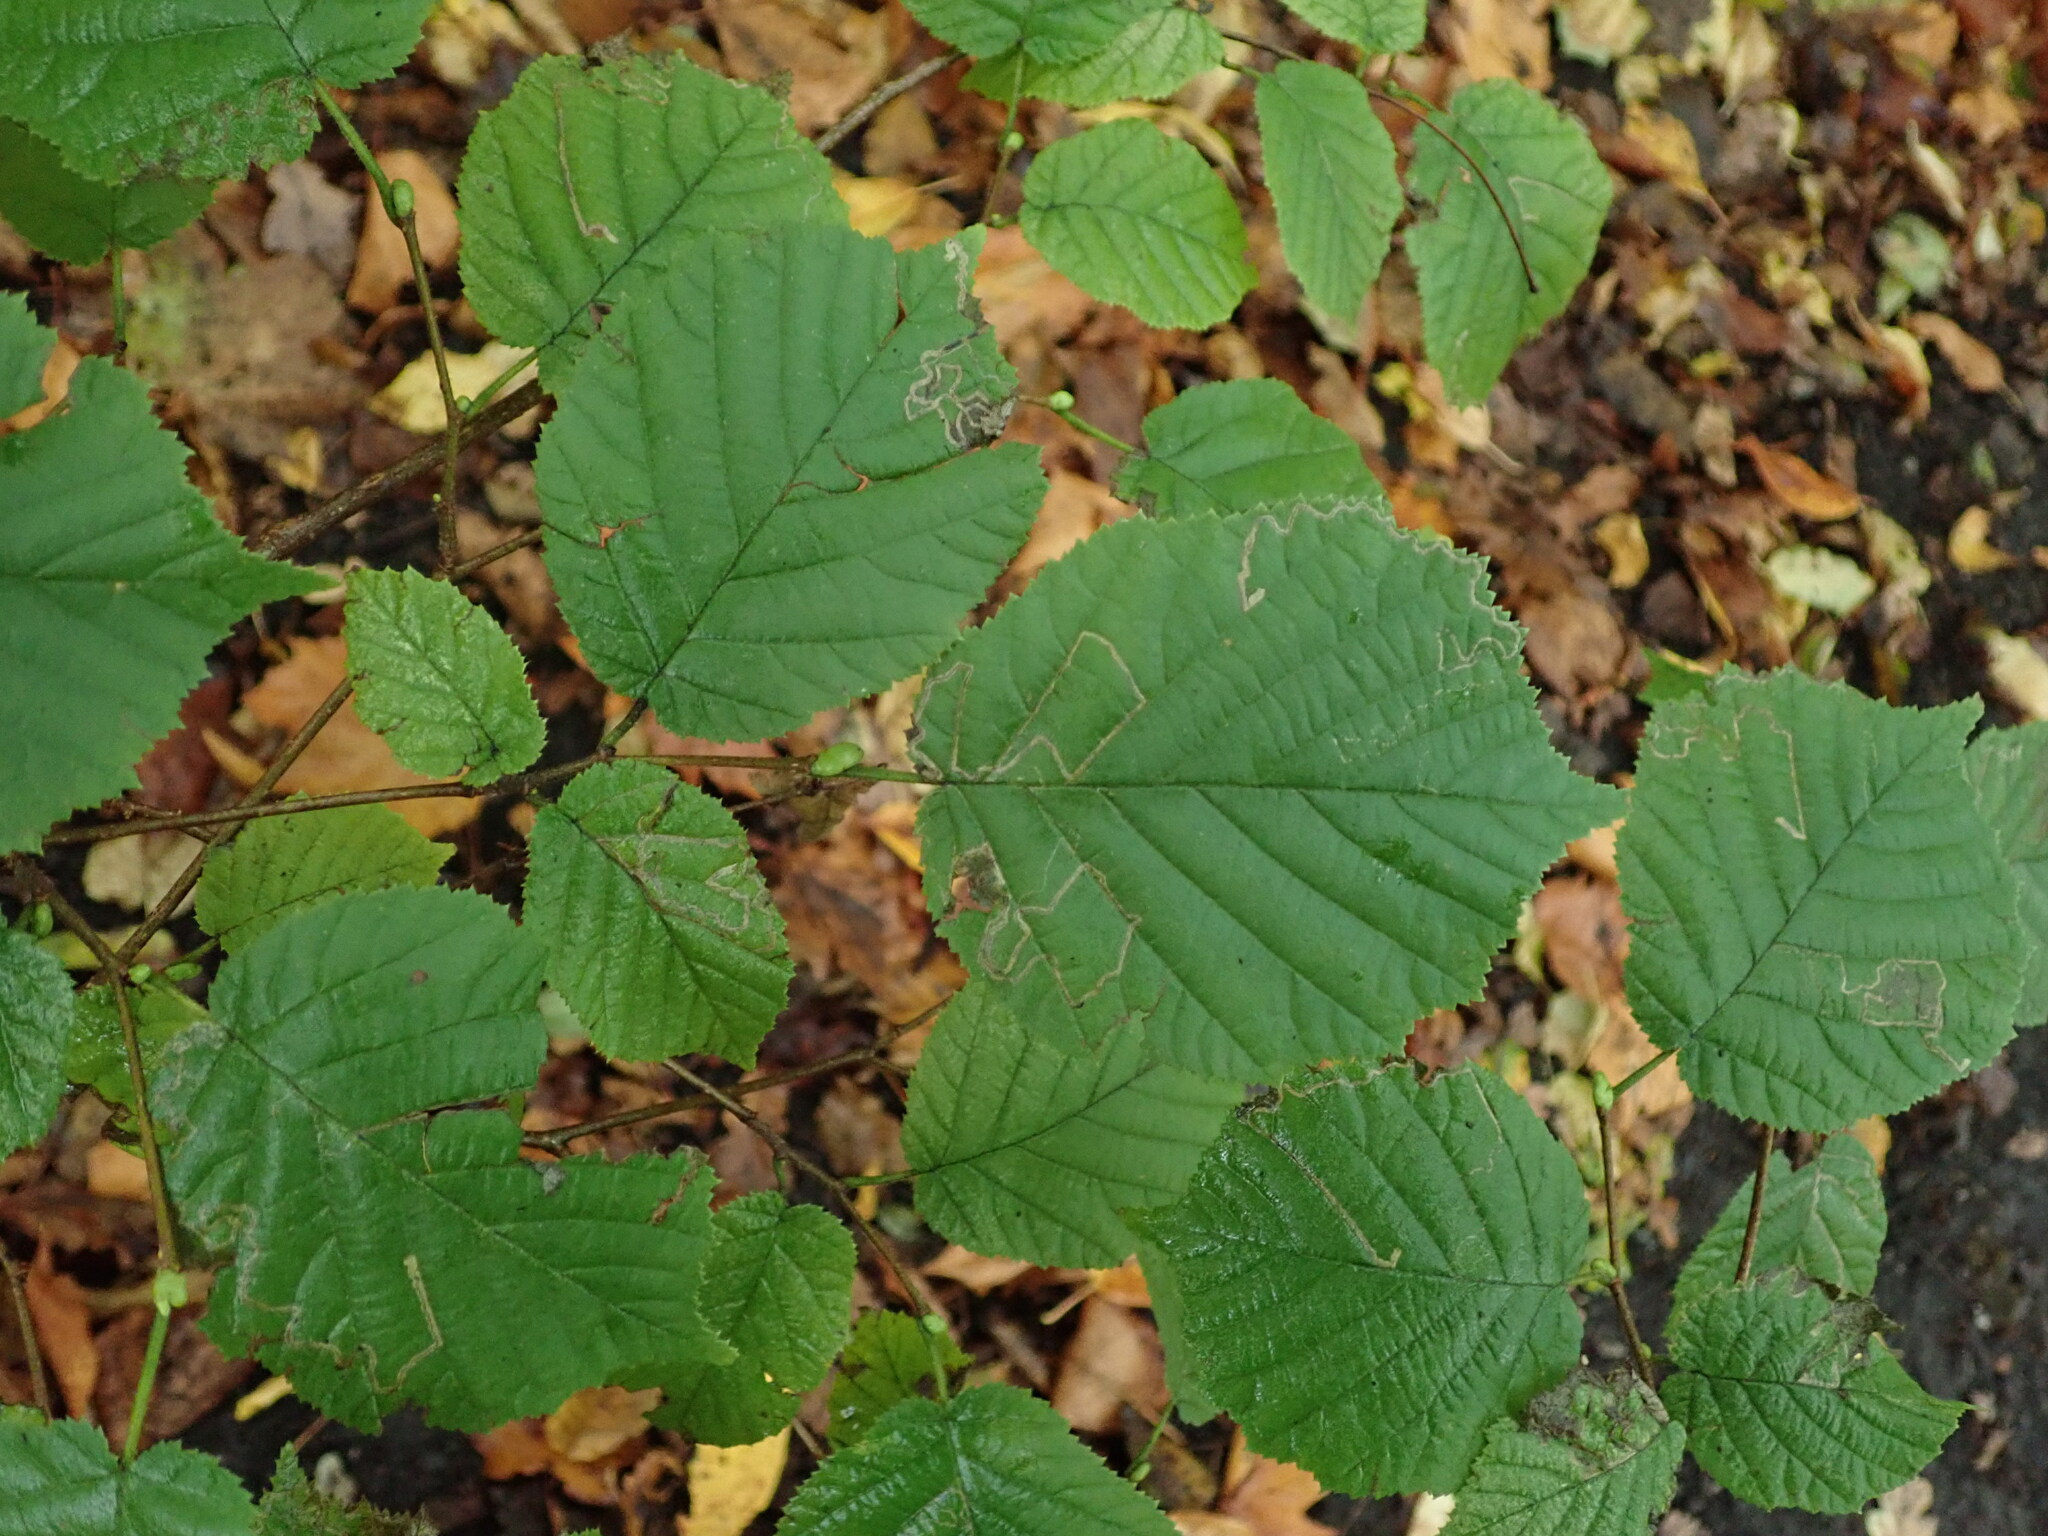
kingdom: Plantae
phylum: Tracheophyta
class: Magnoliopsida
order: Fagales
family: Betulaceae
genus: Corylus
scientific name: Corylus avellana
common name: European hazel
